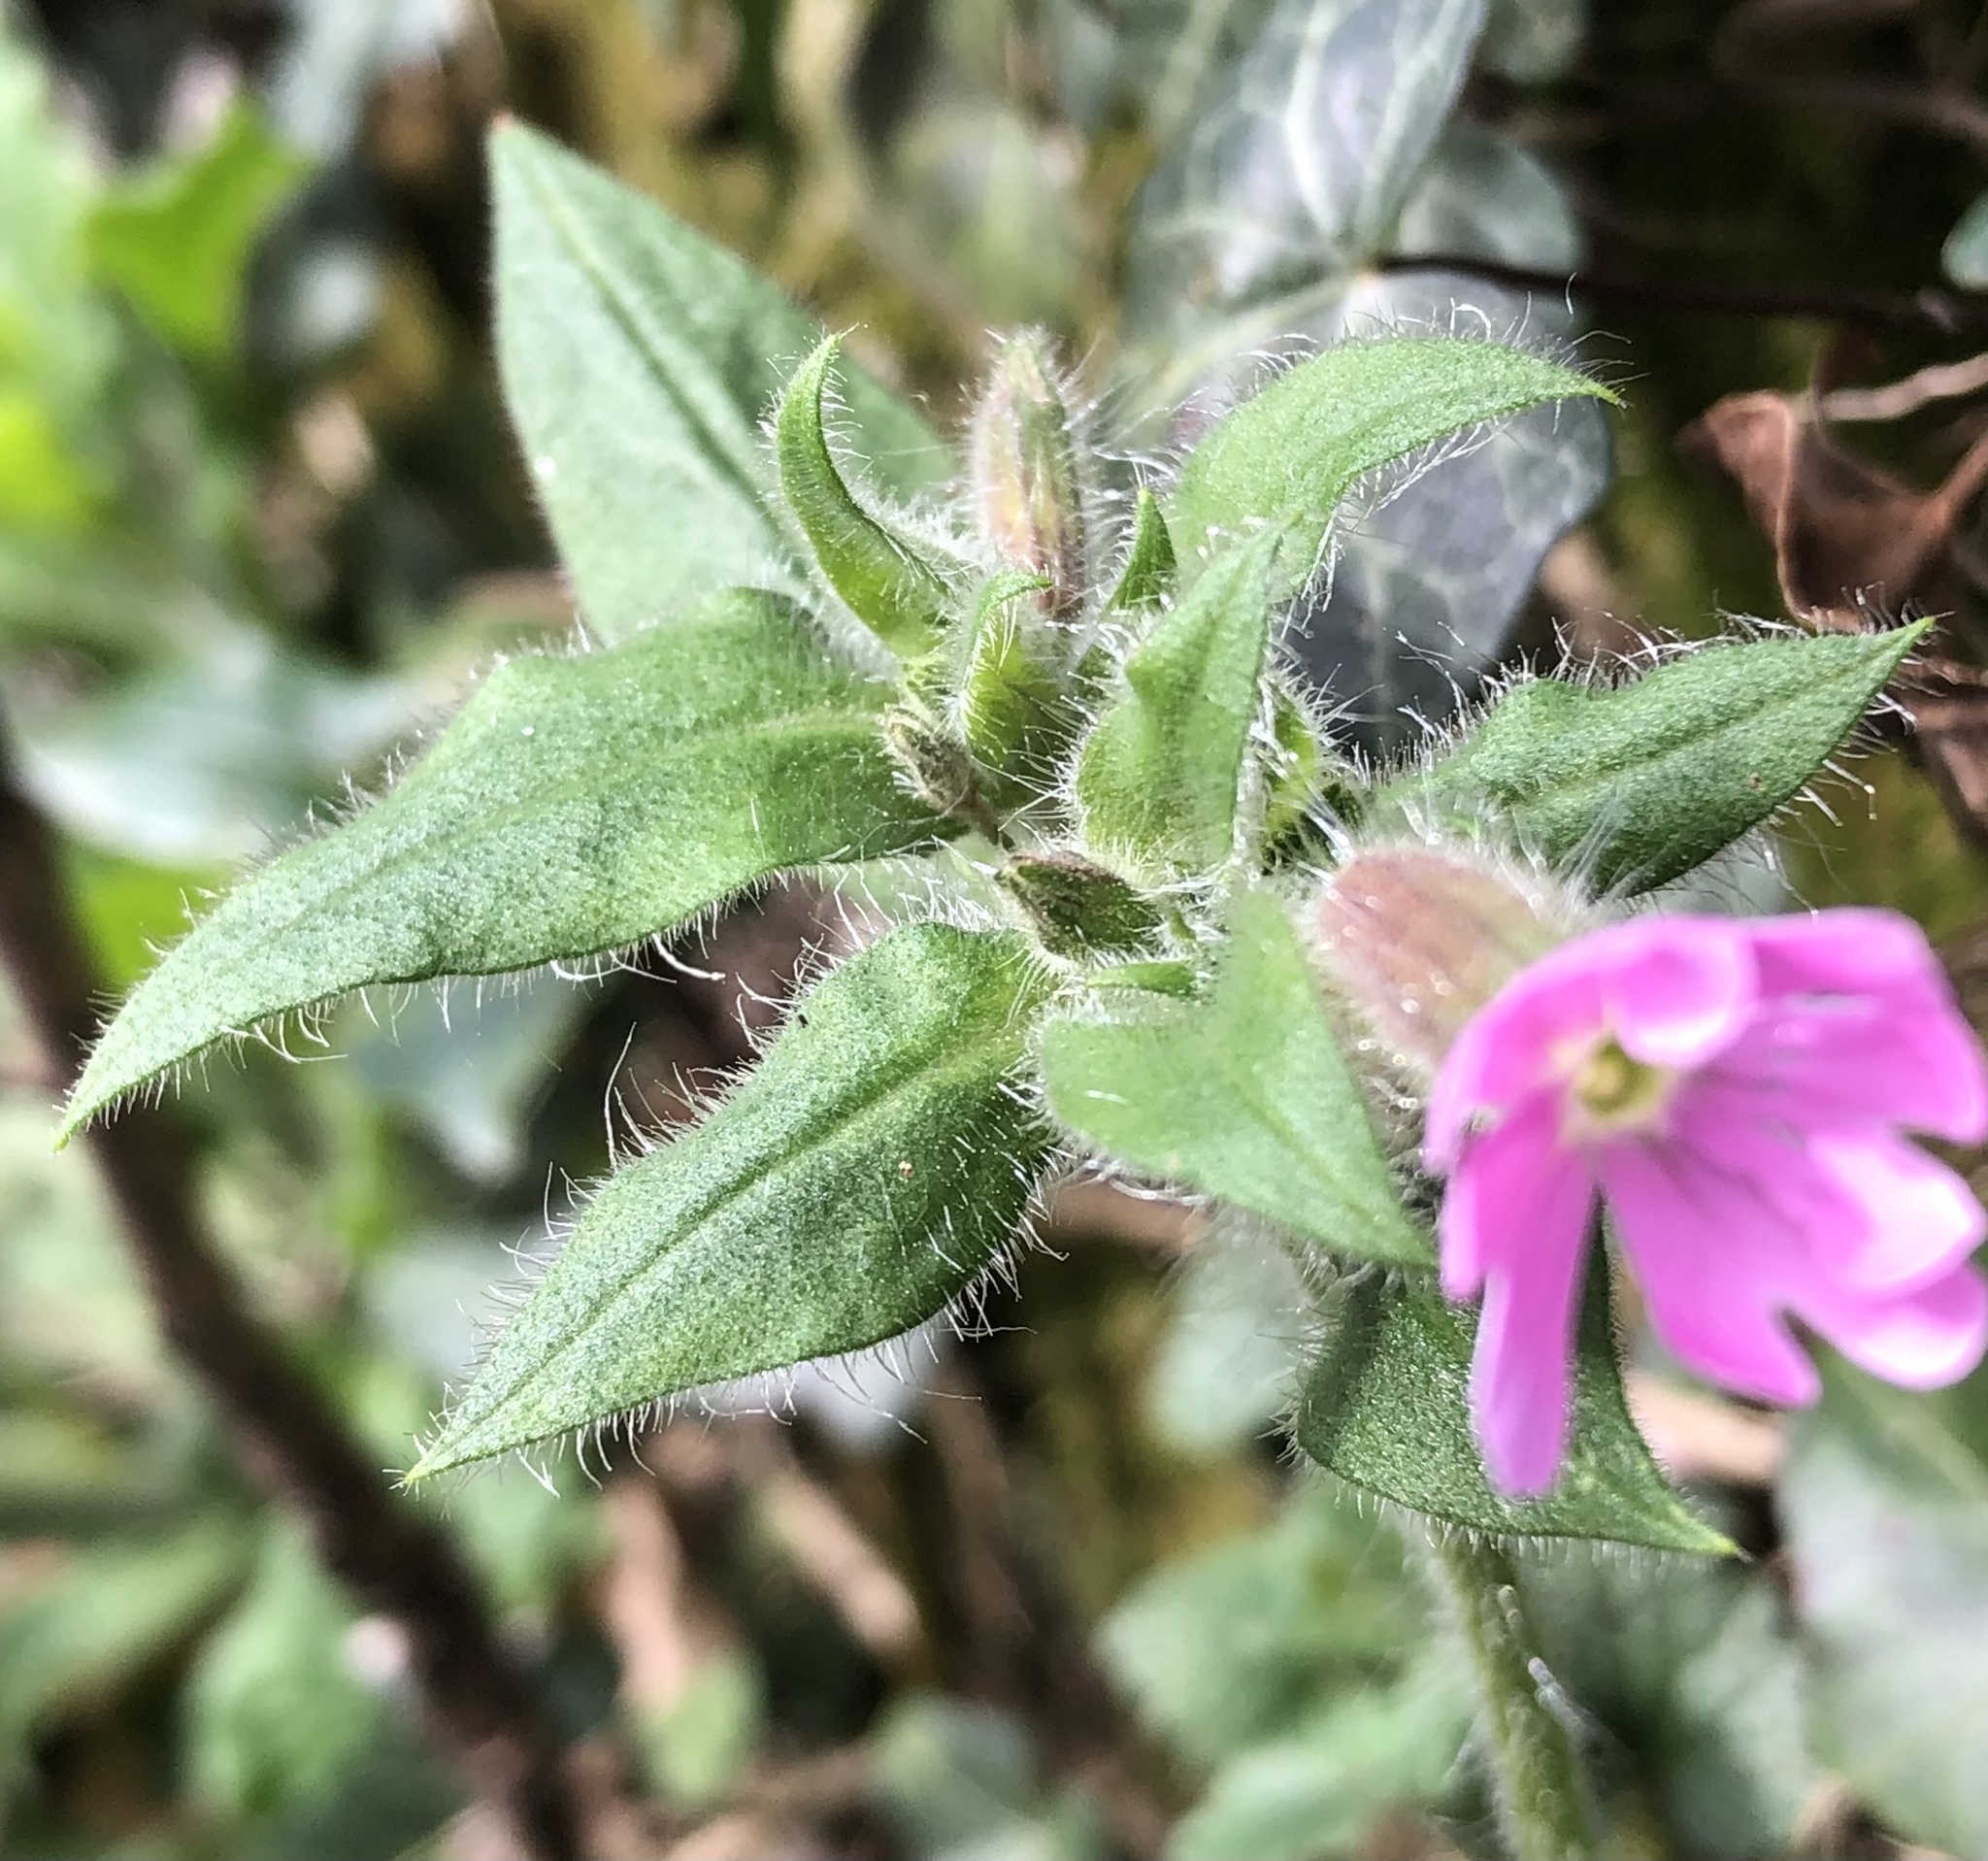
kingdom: Plantae
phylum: Tracheophyta
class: Magnoliopsida
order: Caryophyllales
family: Caryophyllaceae
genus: Silene
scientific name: Silene dioica
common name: Red campion
